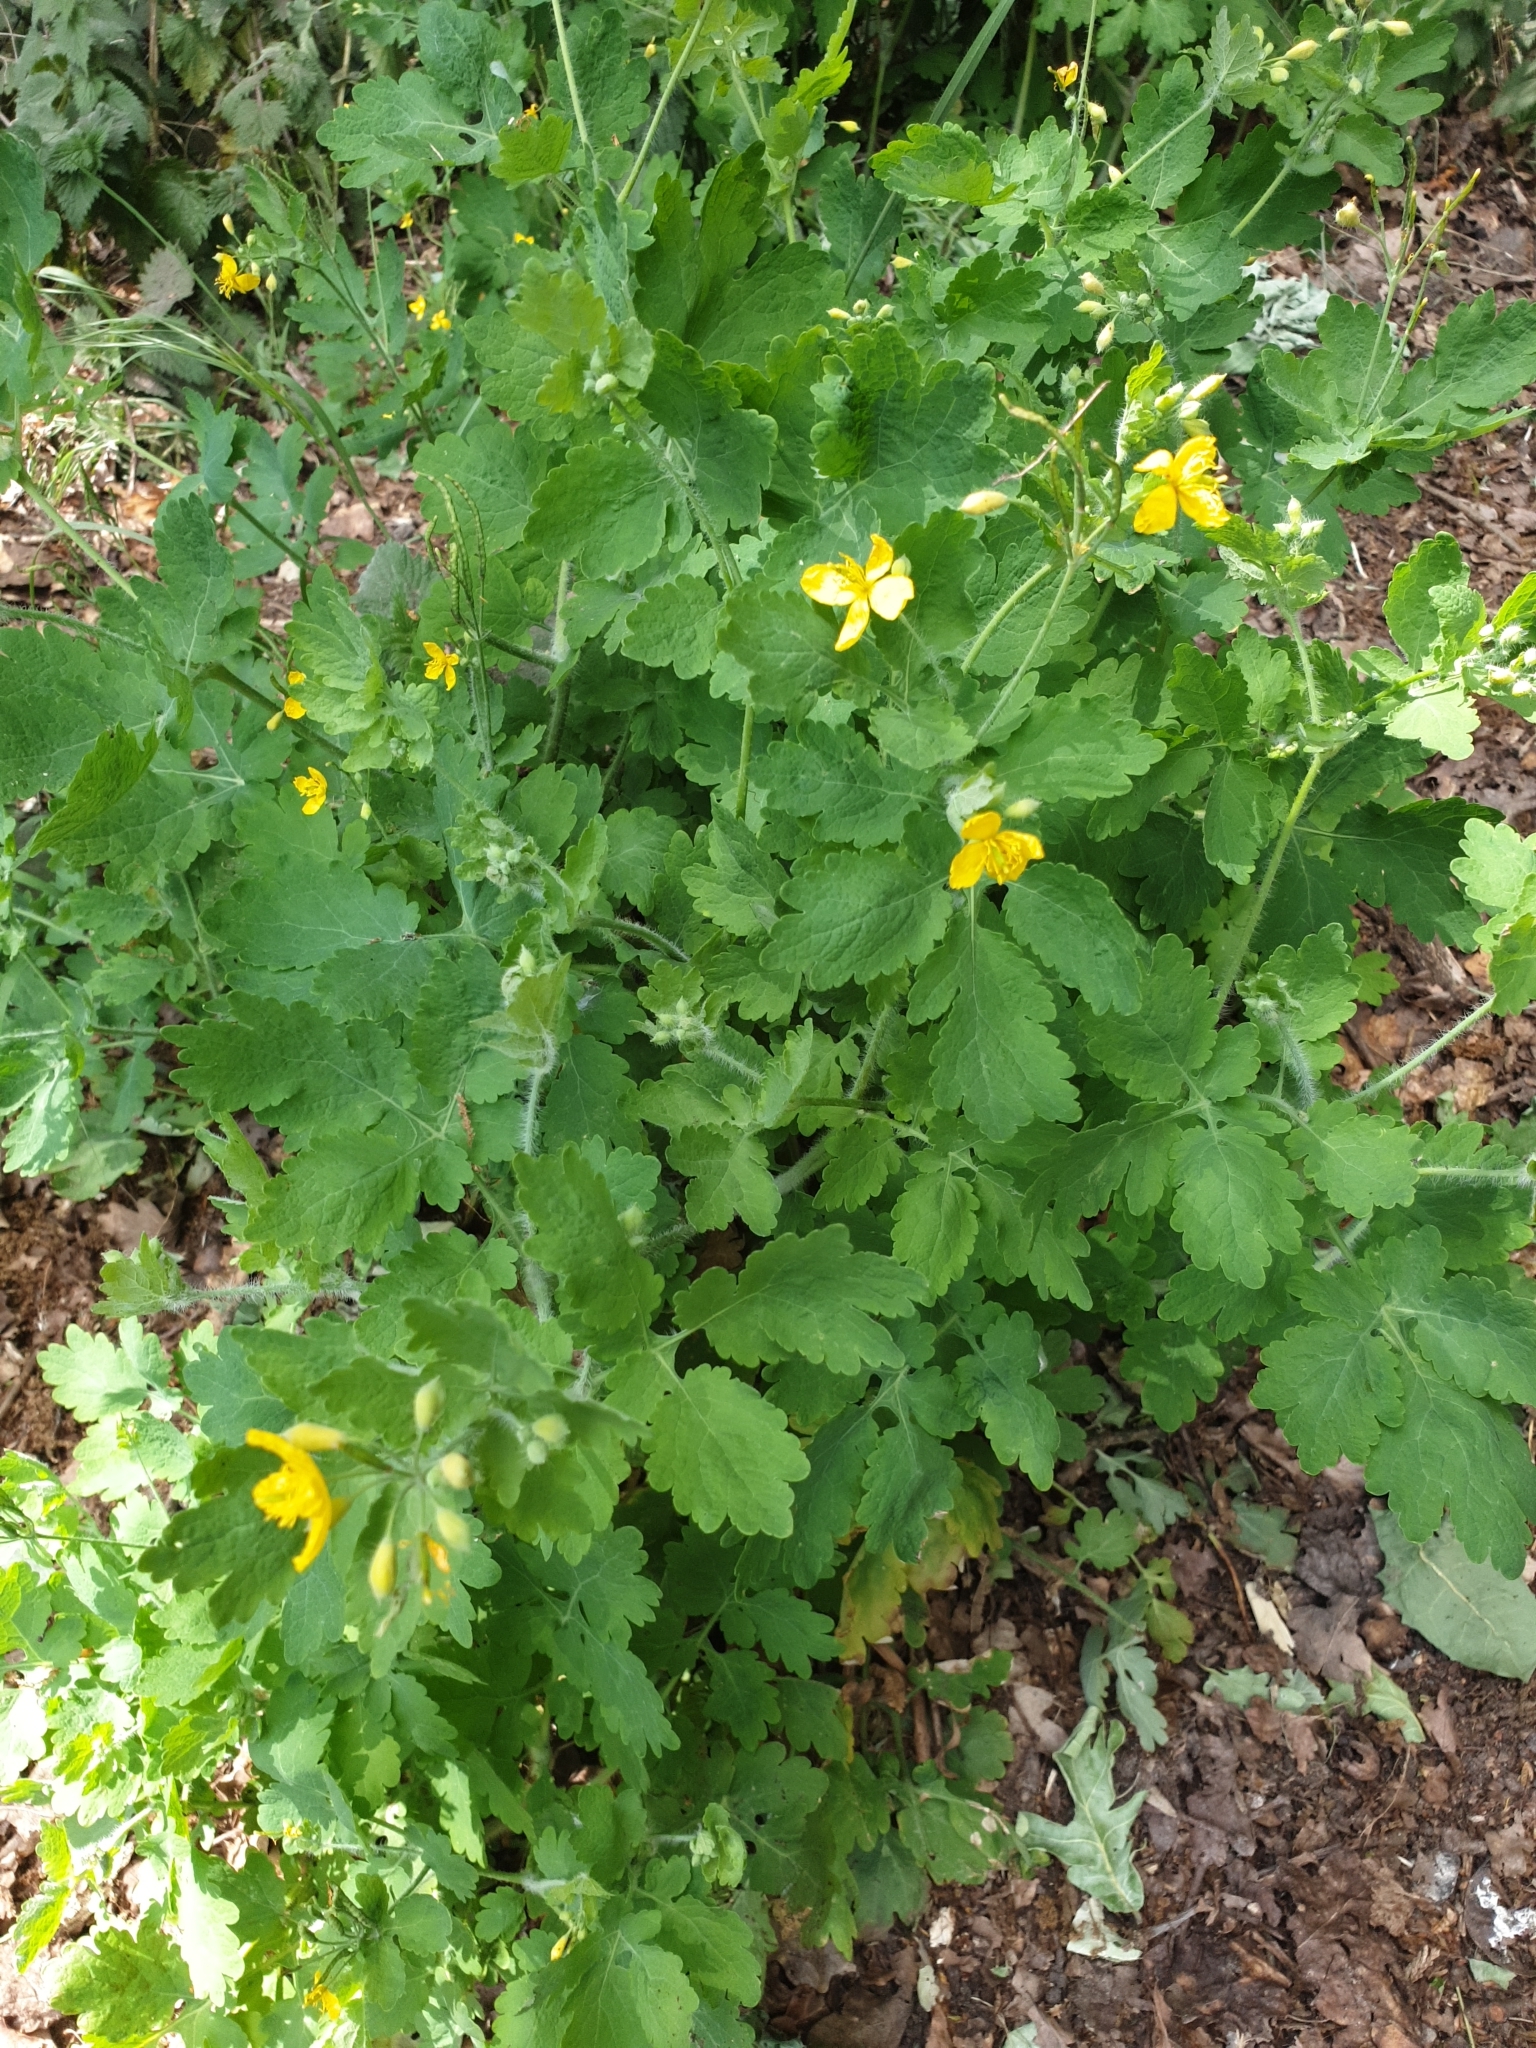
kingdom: Plantae
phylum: Tracheophyta
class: Magnoliopsida
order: Ranunculales
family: Papaveraceae
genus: Chelidonium
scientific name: Chelidonium majus
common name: Greater celandine
